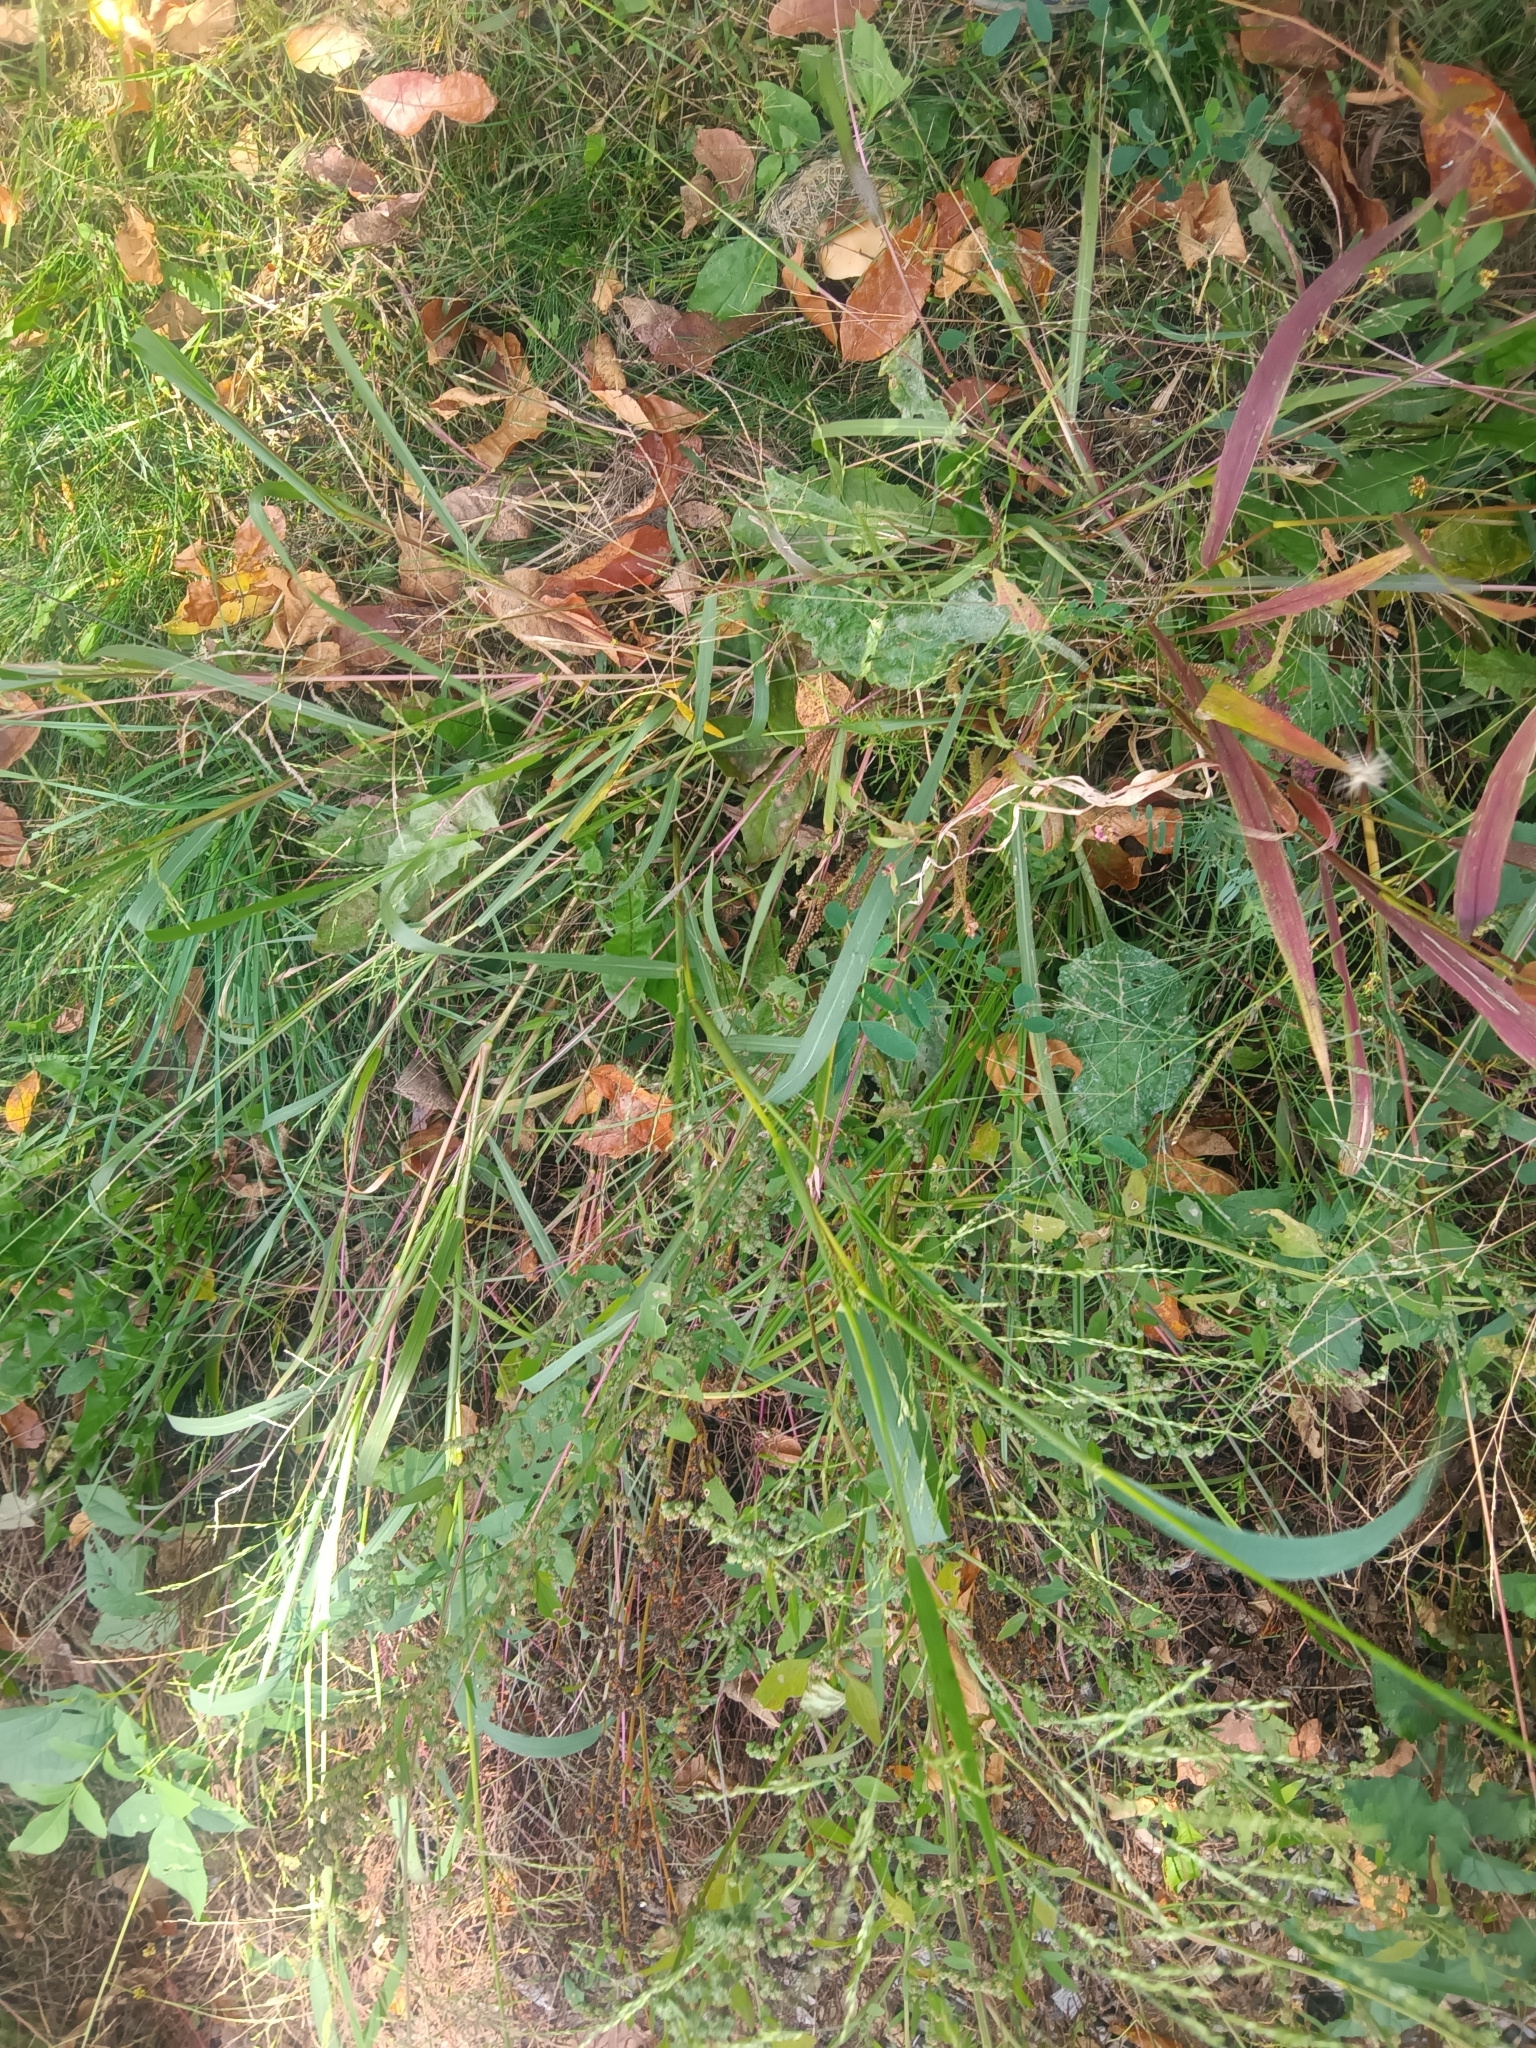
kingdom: Plantae
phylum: Tracheophyta
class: Liliopsida
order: Poales
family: Poaceae
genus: Panicum
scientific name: Panicum dichotomiflorum
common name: Autumn millet
